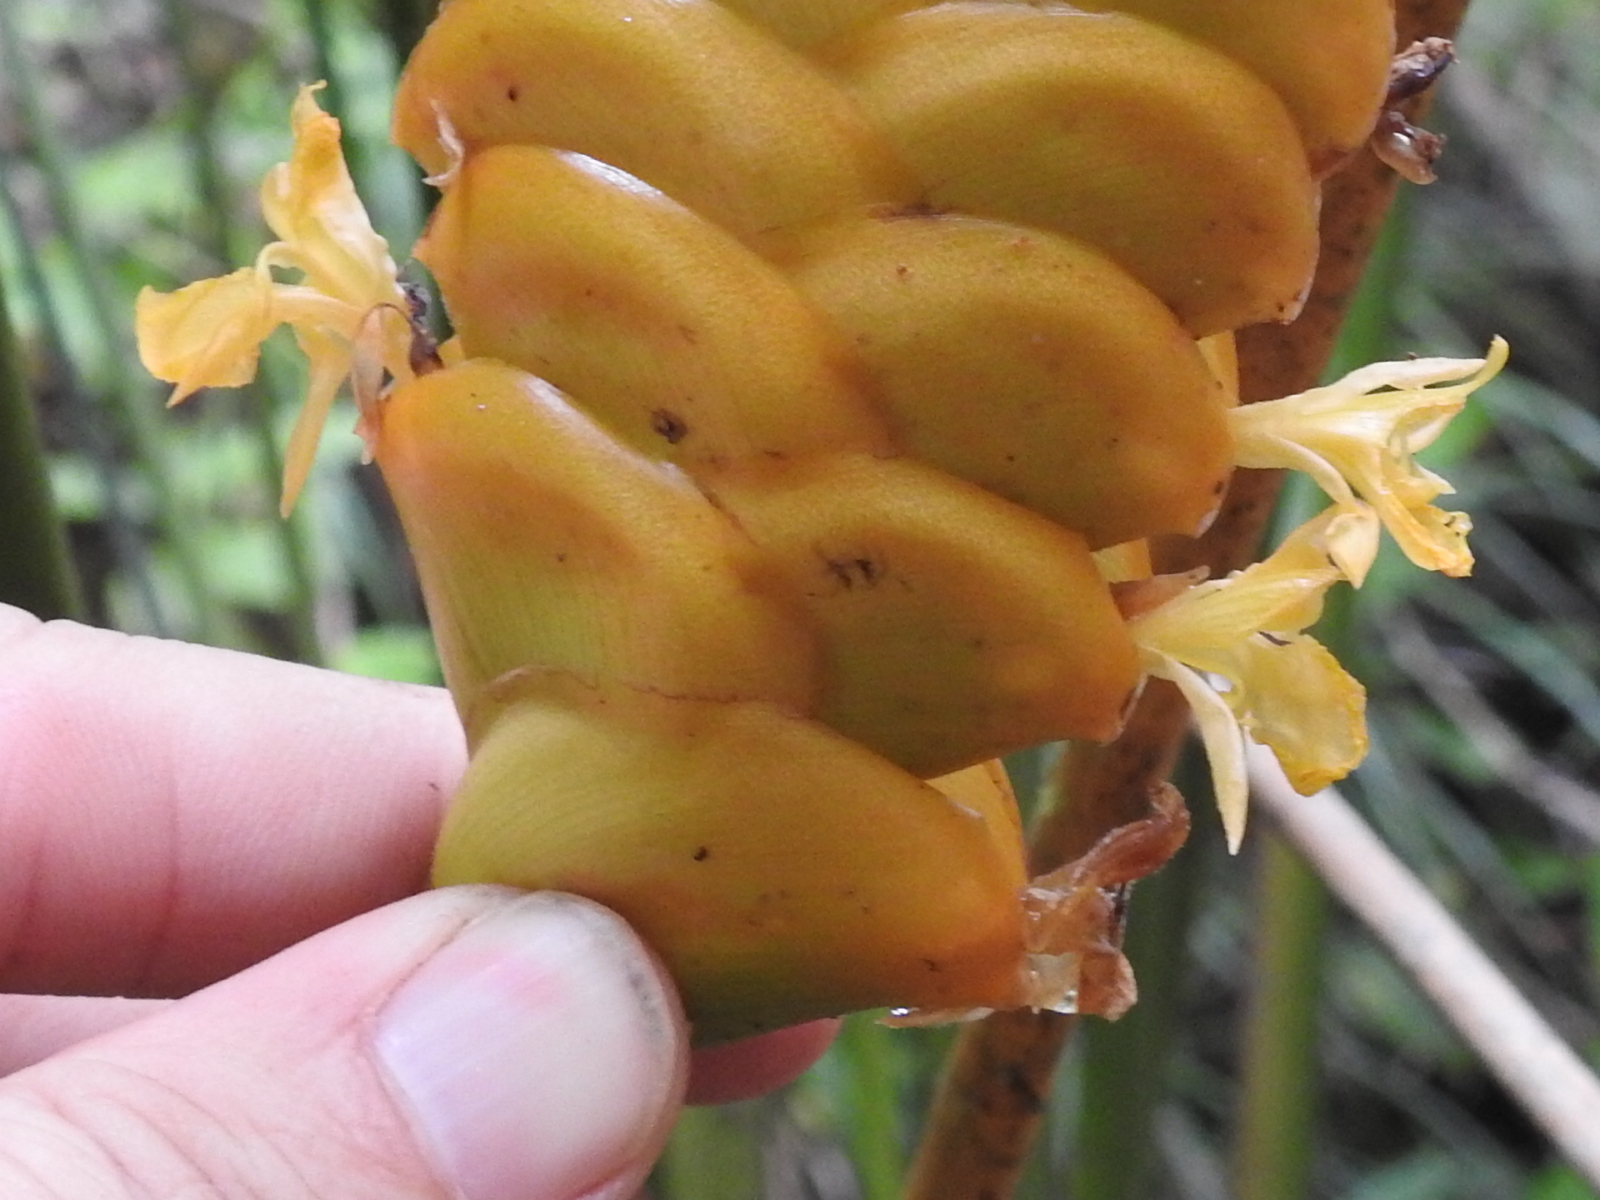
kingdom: Plantae
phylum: Tracheophyta
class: Liliopsida
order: Zingiberales
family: Marantaceae
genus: Calathea
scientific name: Calathea crotalifera
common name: Rattlesnake plant
